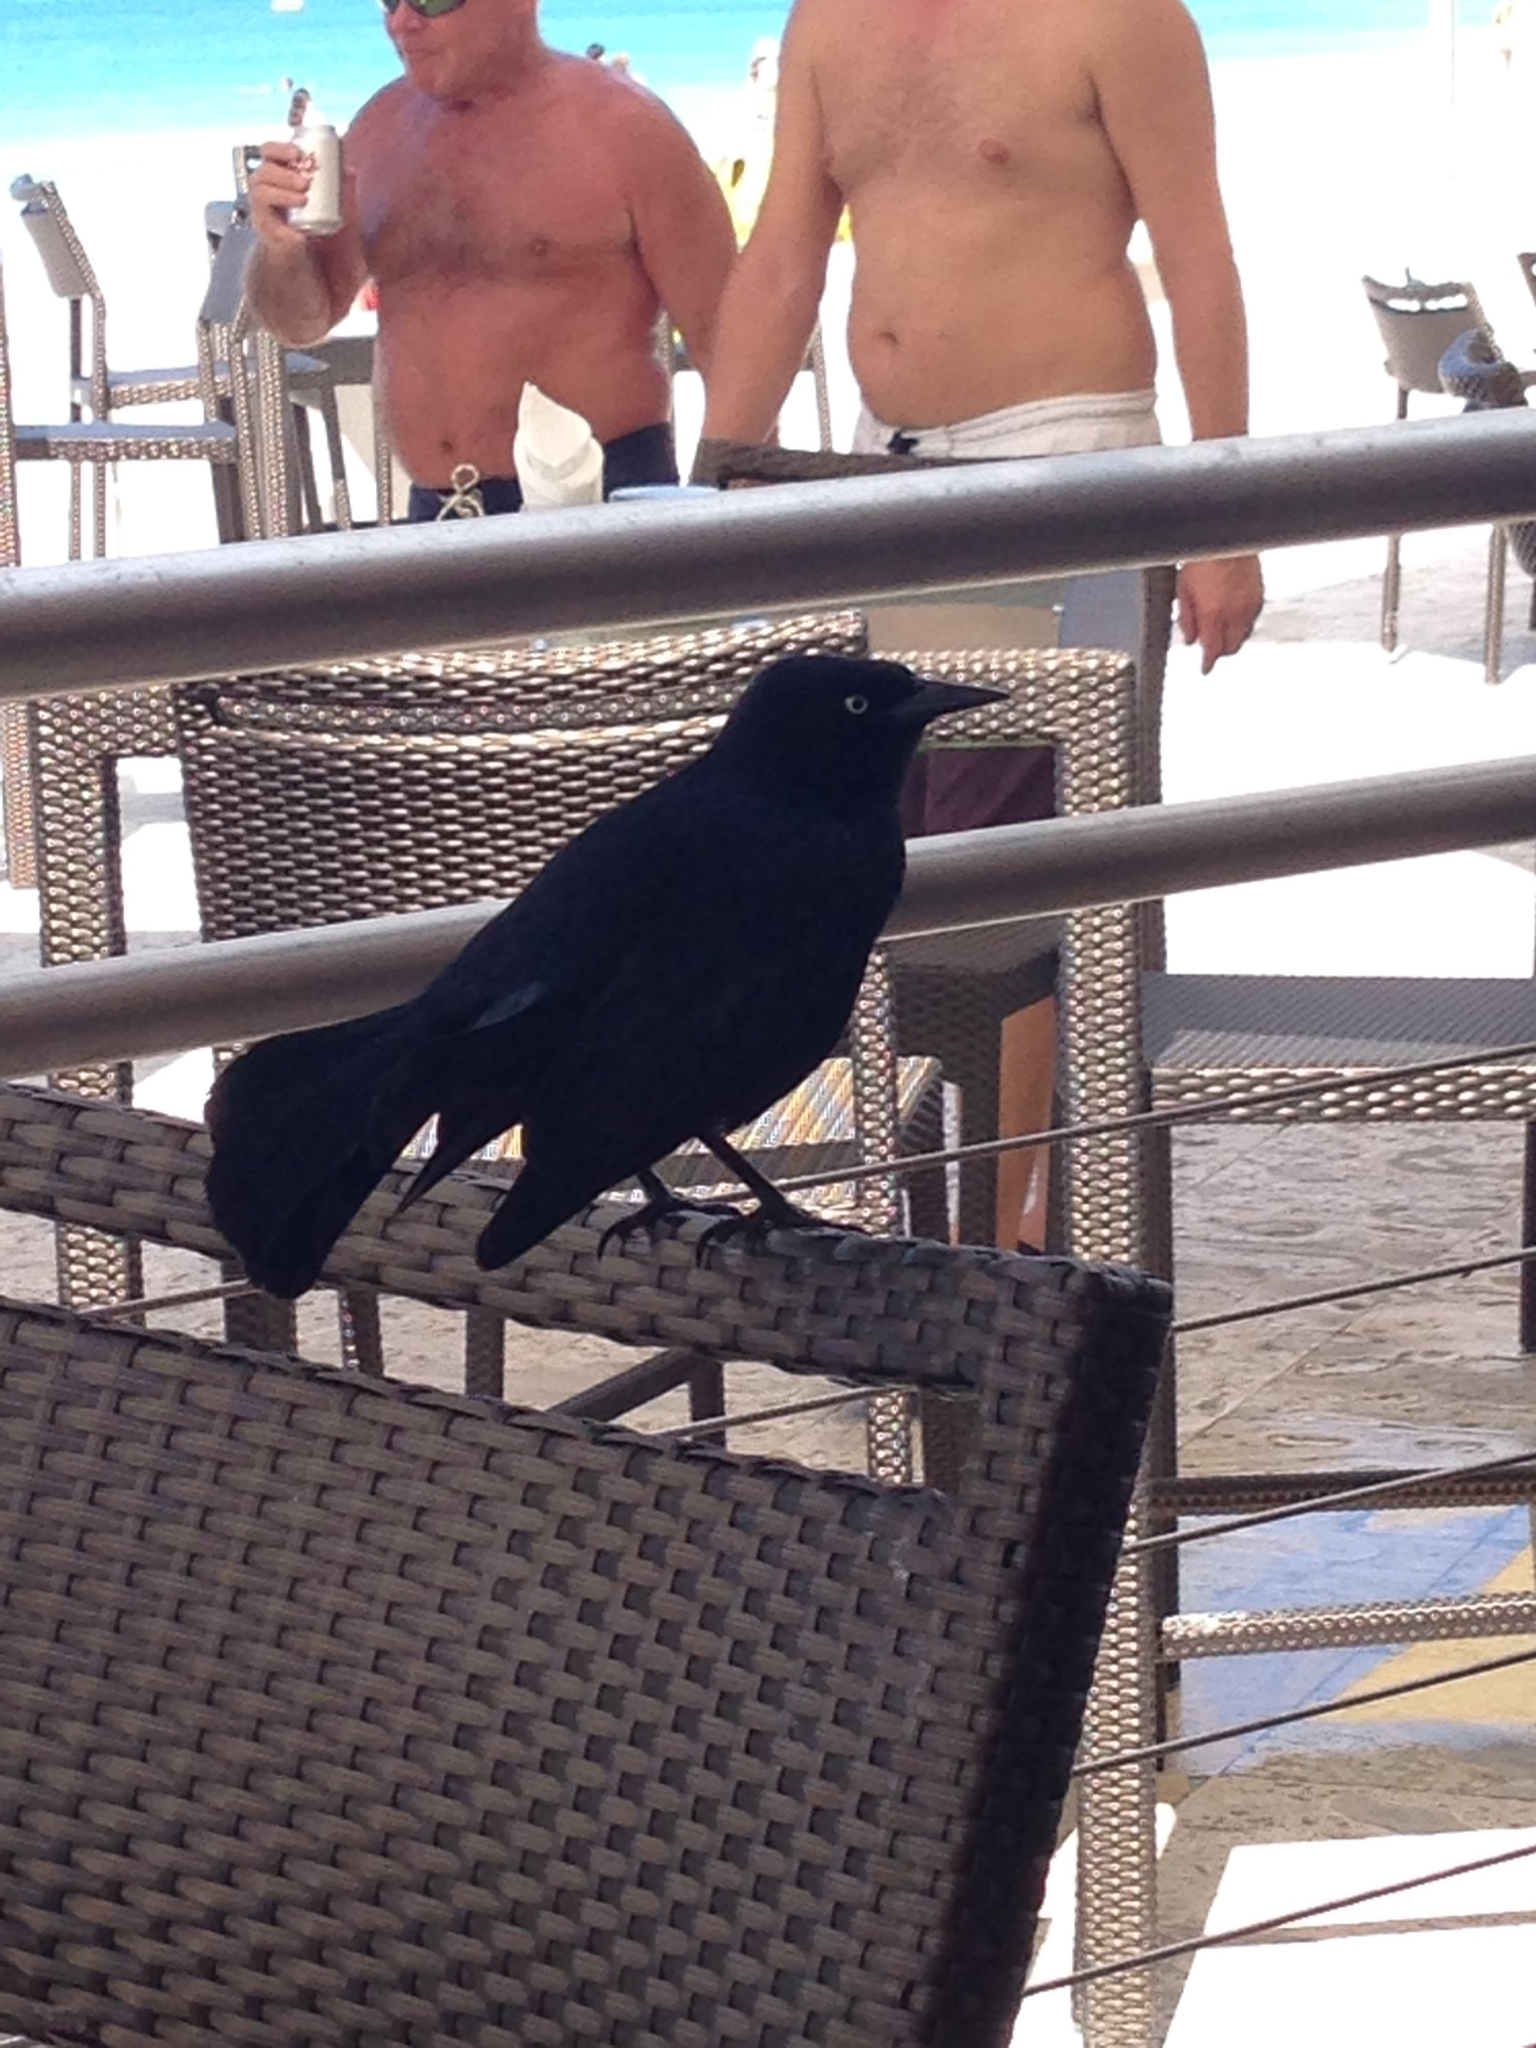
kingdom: Animalia
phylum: Chordata
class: Aves
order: Passeriformes
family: Icteridae
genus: Quiscalus
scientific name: Quiscalus niger
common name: Greater antillean grackle
